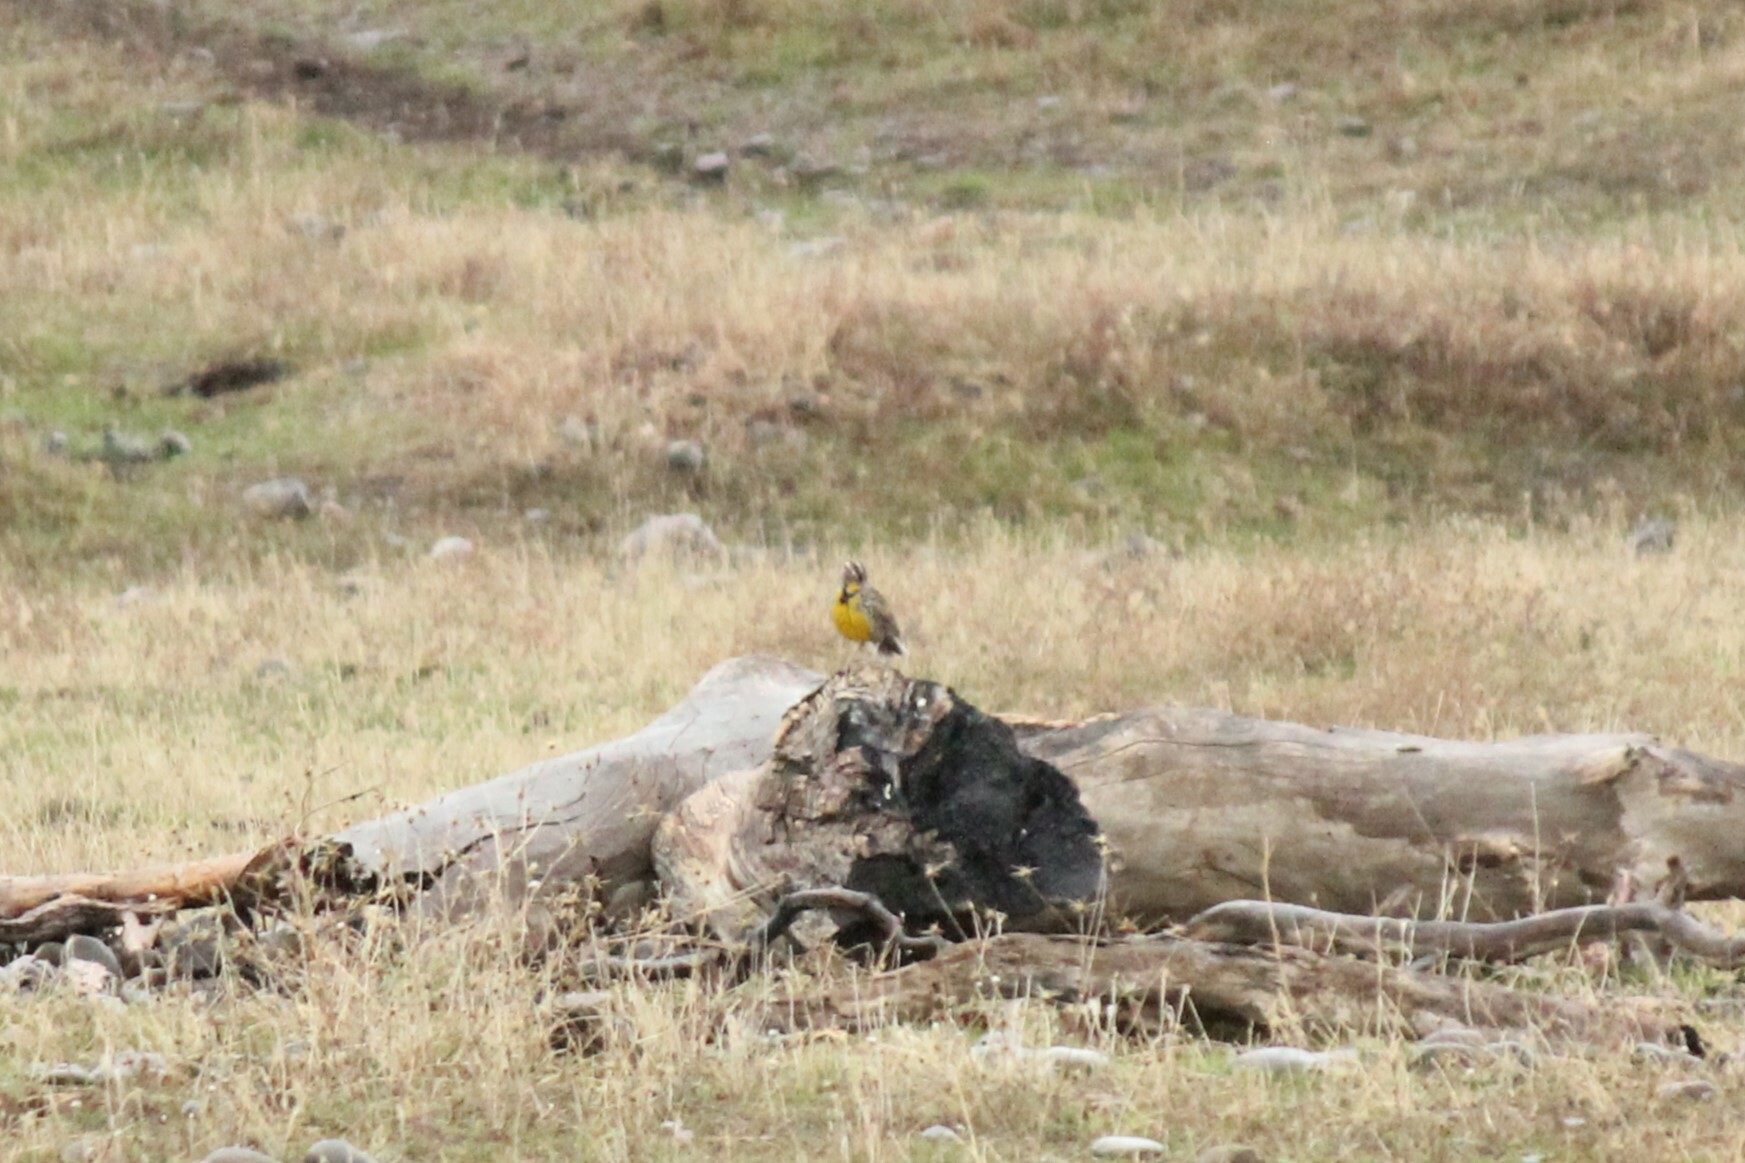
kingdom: Animalia
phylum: Chordata
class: Aves
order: Passeriformes
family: Icteridae
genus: Sturnella
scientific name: Sturnella neglecta
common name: Western meadowlark
